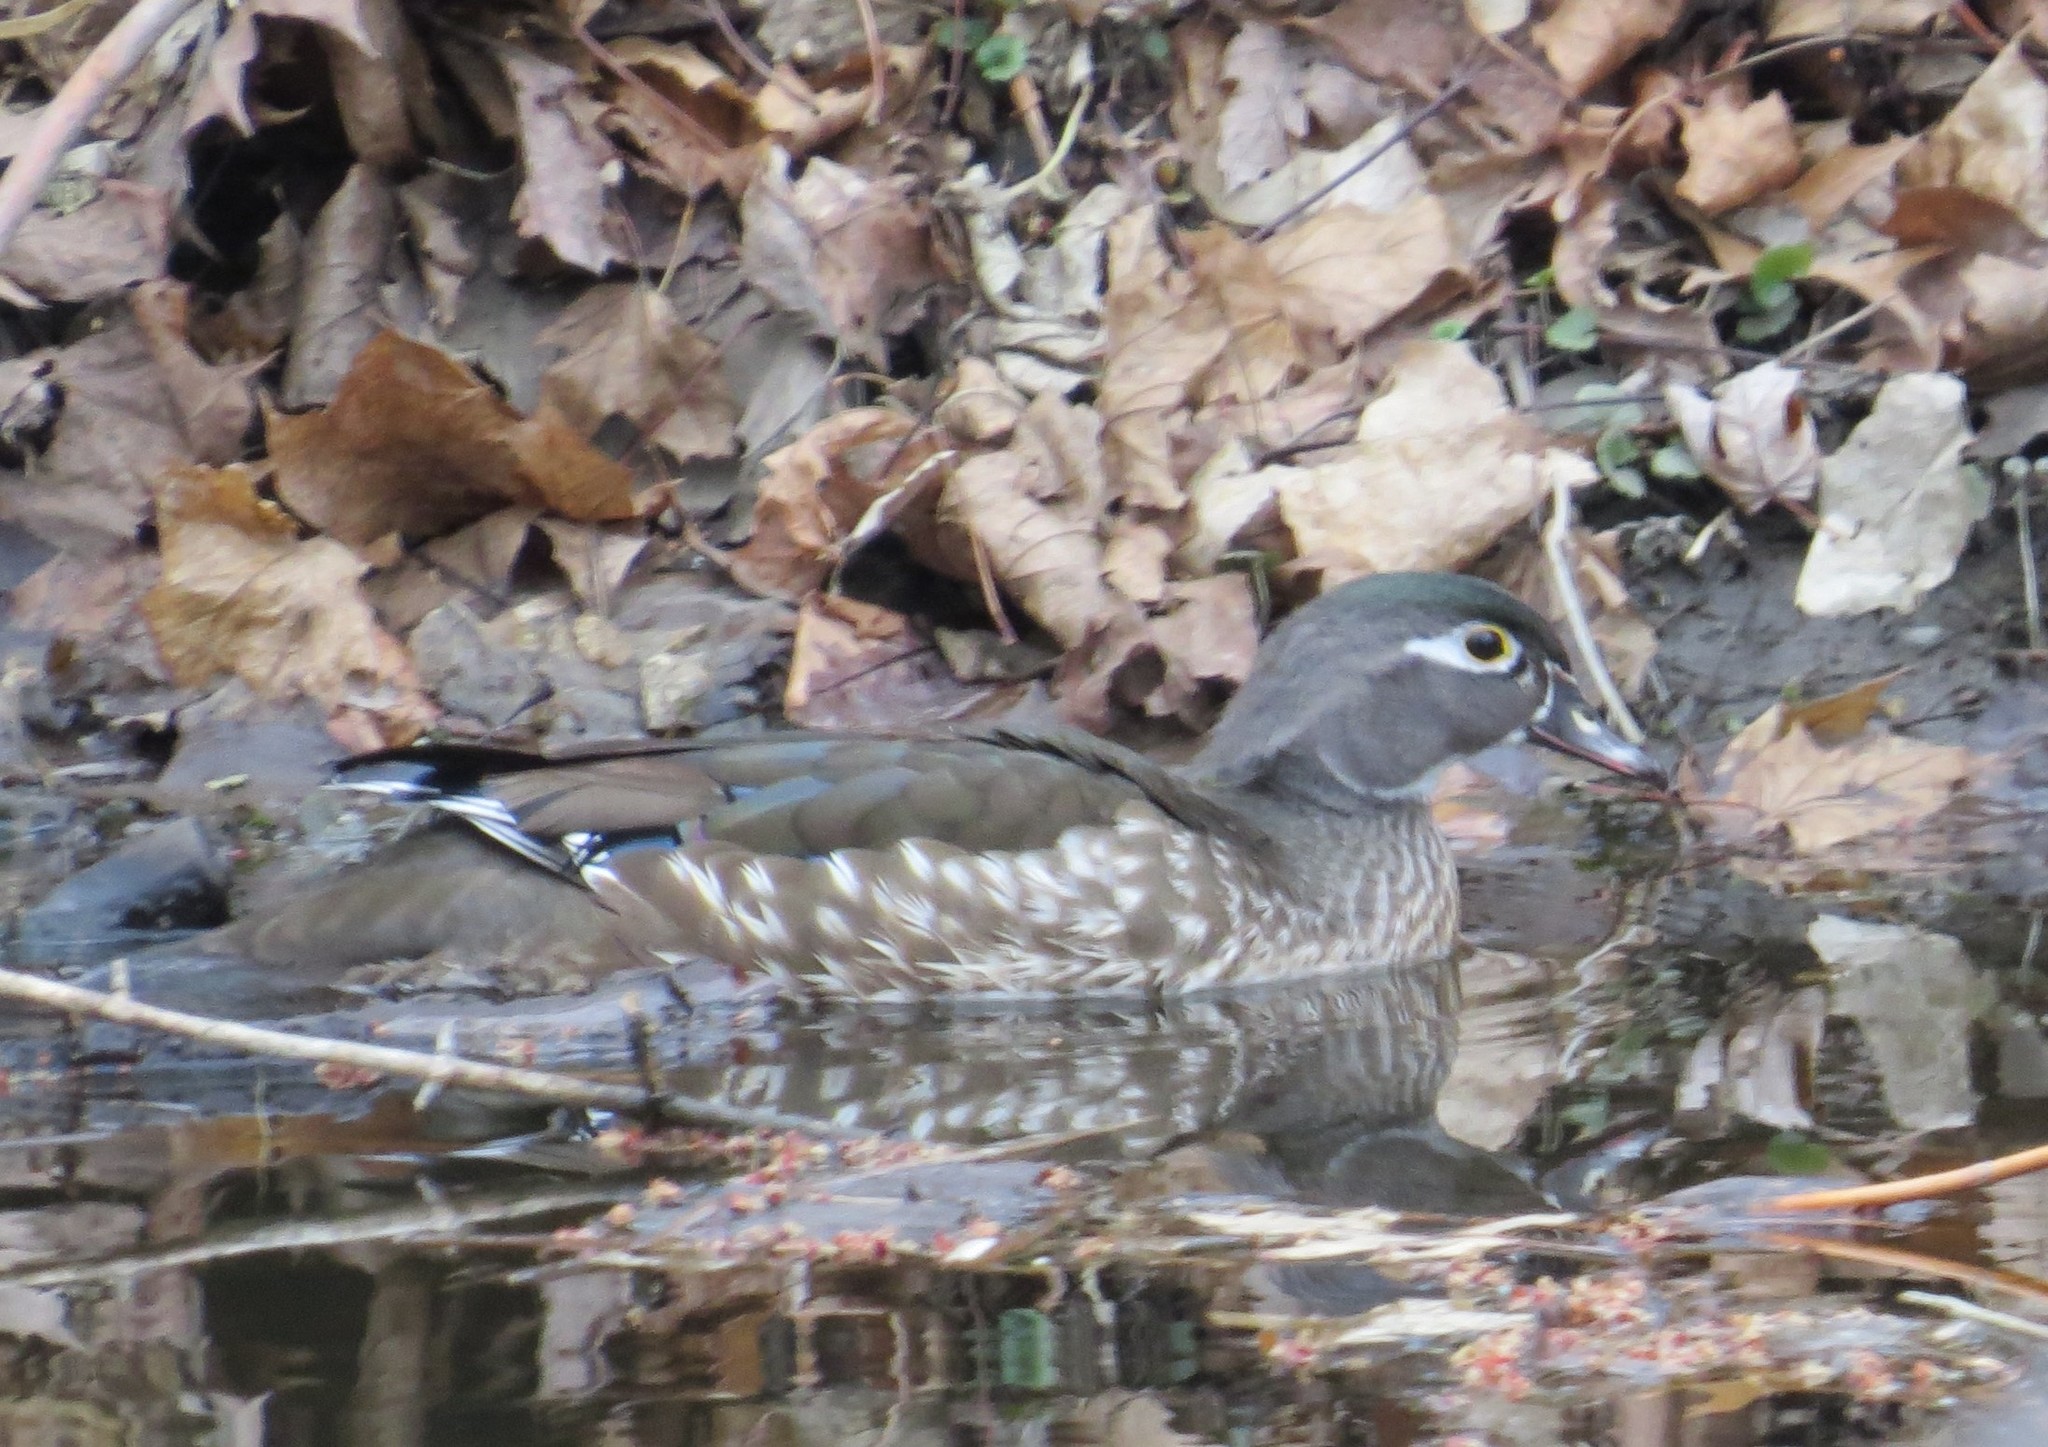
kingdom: Animalia
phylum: Chordata
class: Aves
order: Anseriformes
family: Anatidae
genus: Aix
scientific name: Aix sponsa
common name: Wood duck
